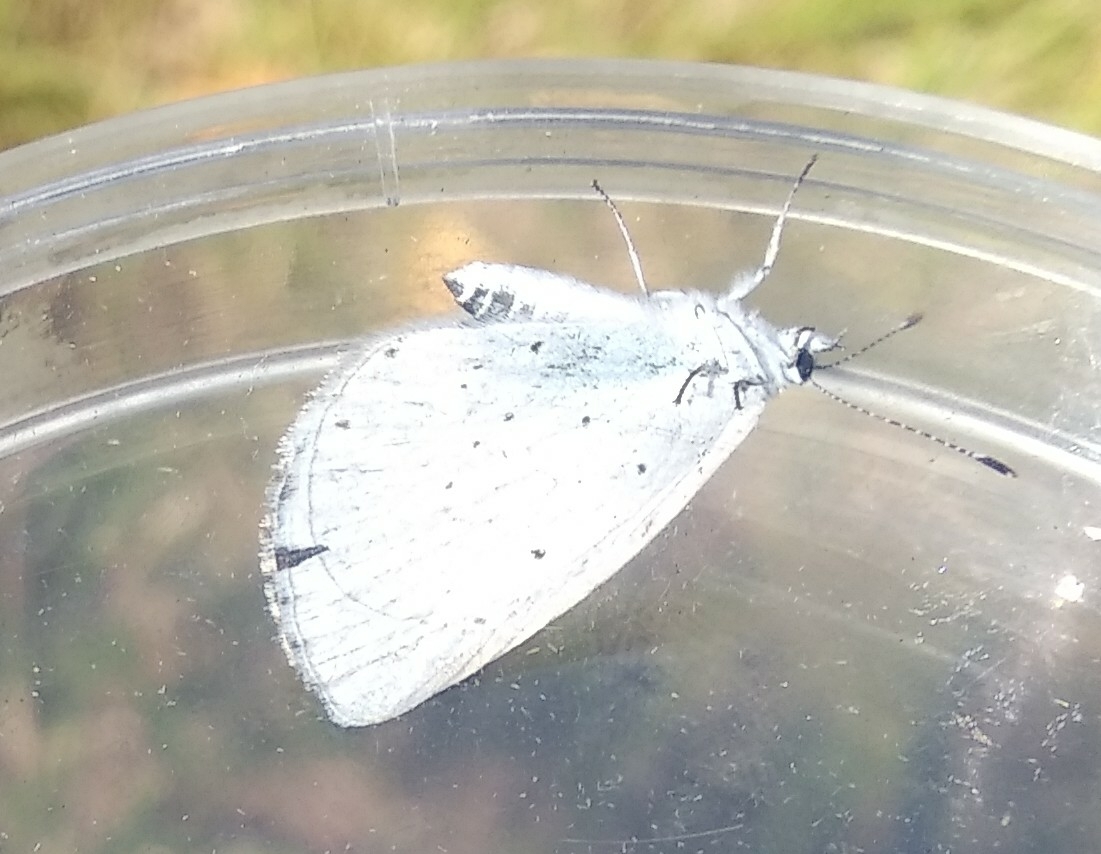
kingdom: Animalia
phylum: Arthropoda
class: Insecta
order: Lepidoptera
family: Lycaenidae
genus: Celastrina
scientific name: Celastrina argiolus
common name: Holly blue
